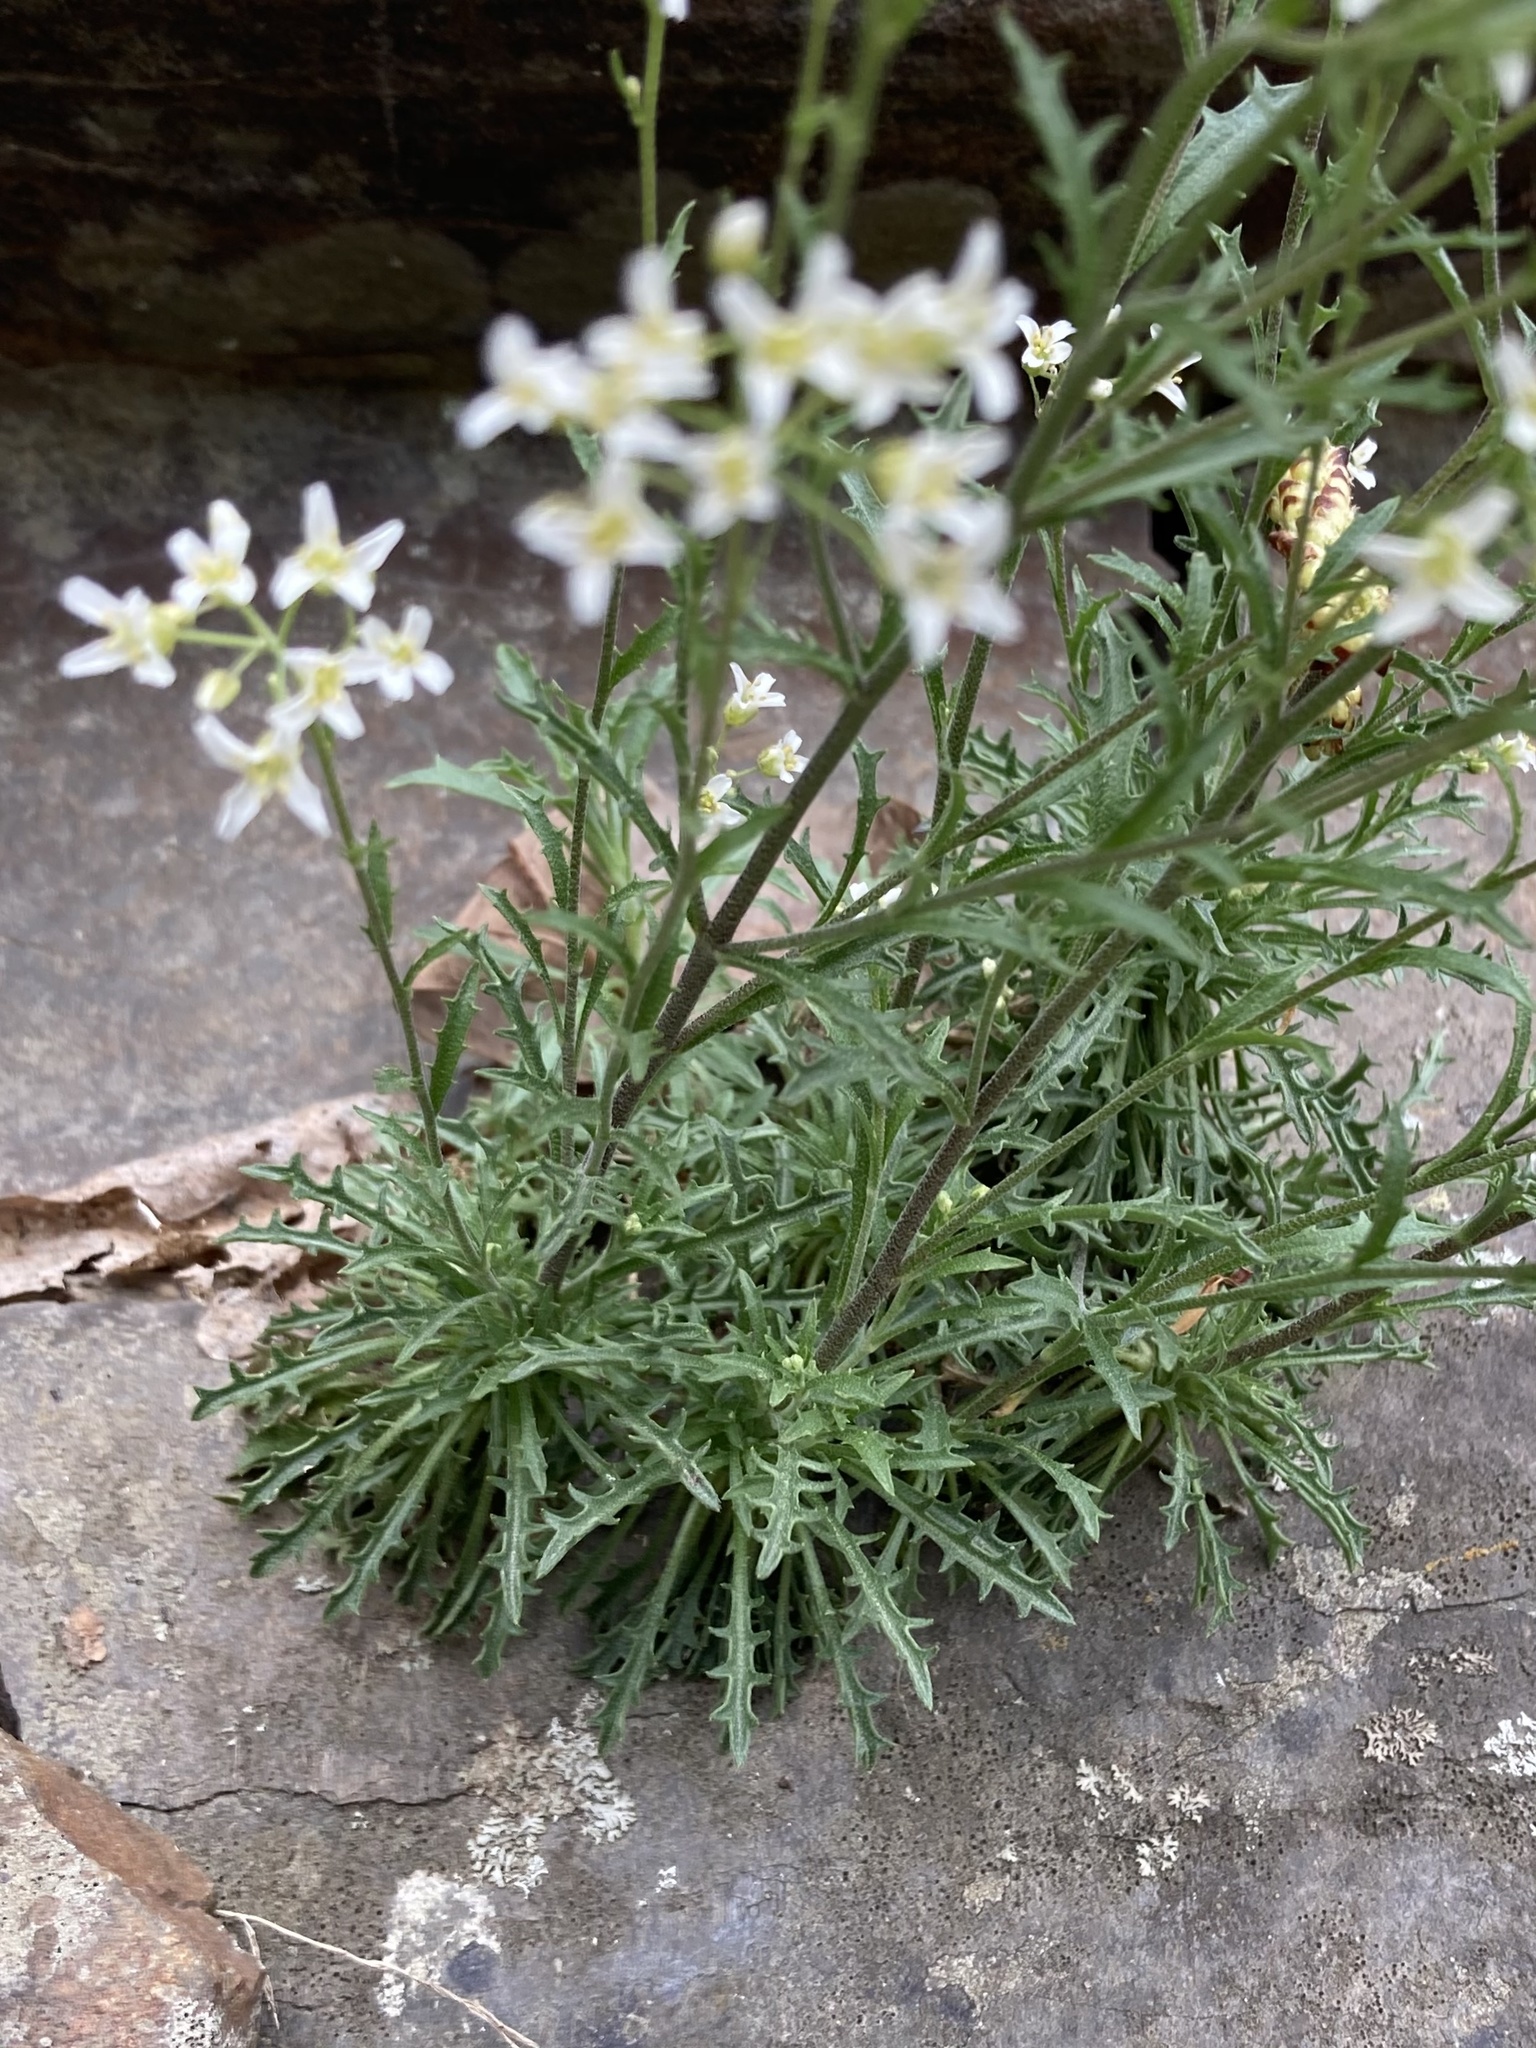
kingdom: Plantae
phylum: Tracheophyta
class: Magnoliopsida
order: Brassicales
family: Brassicaceae
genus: Draba
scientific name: Draba ramosissima
